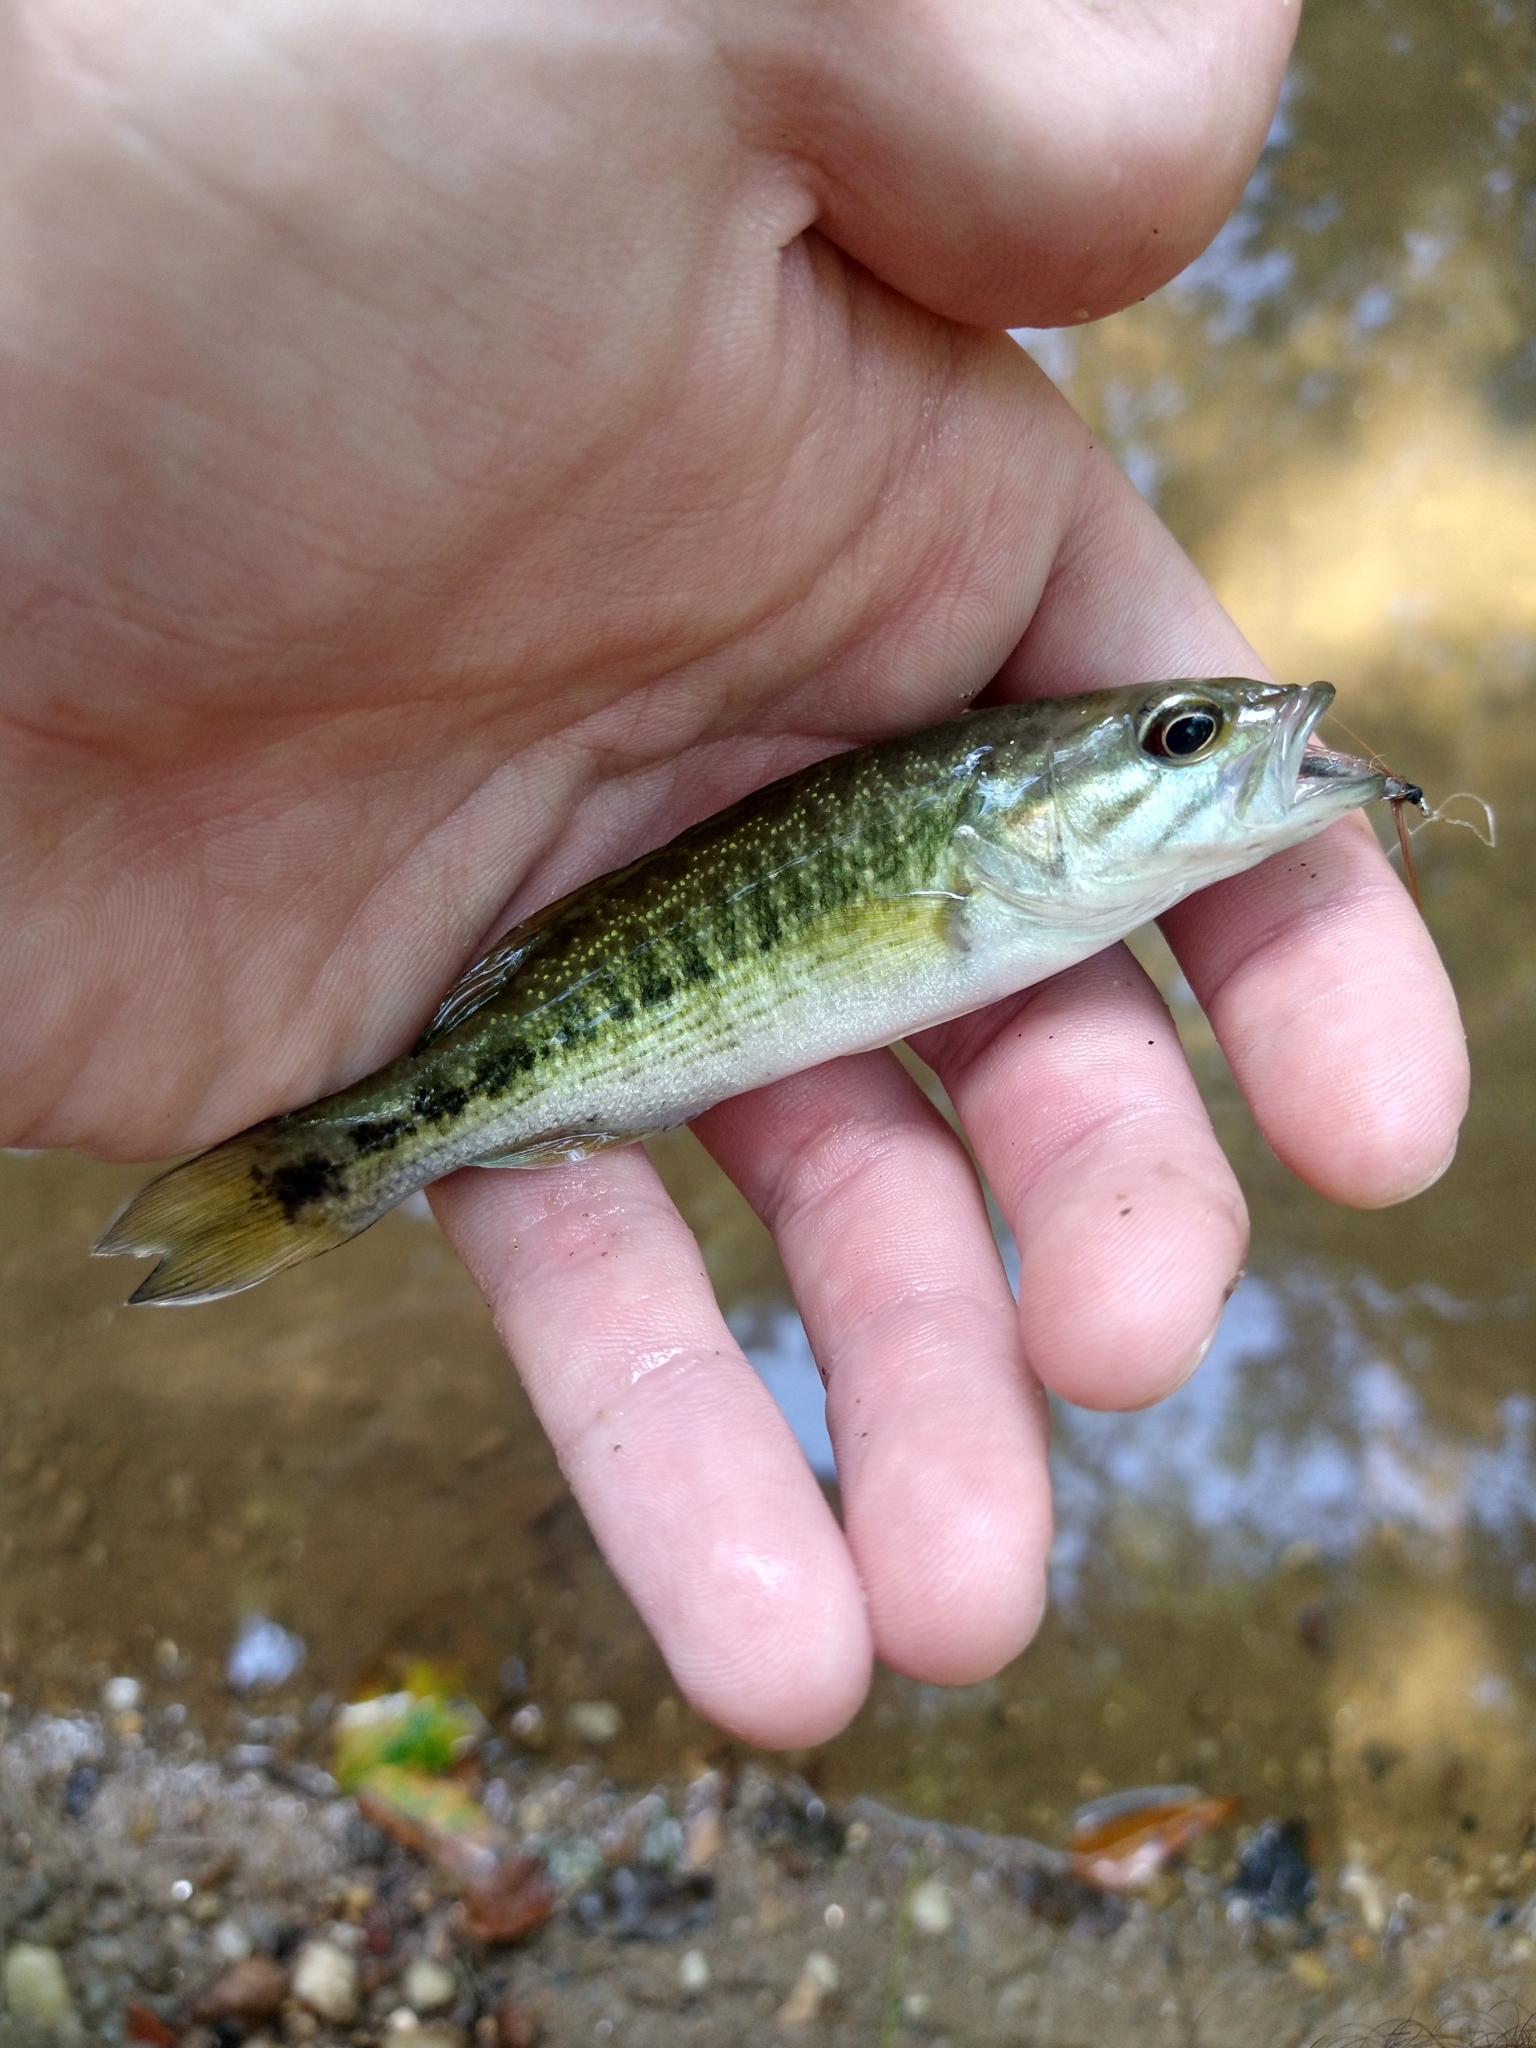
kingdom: Animalia
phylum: Chordata
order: Perciformes
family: Centrarchidae
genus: Micropterus
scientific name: Micropterus tallapoosae
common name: Tallapoosa bass
